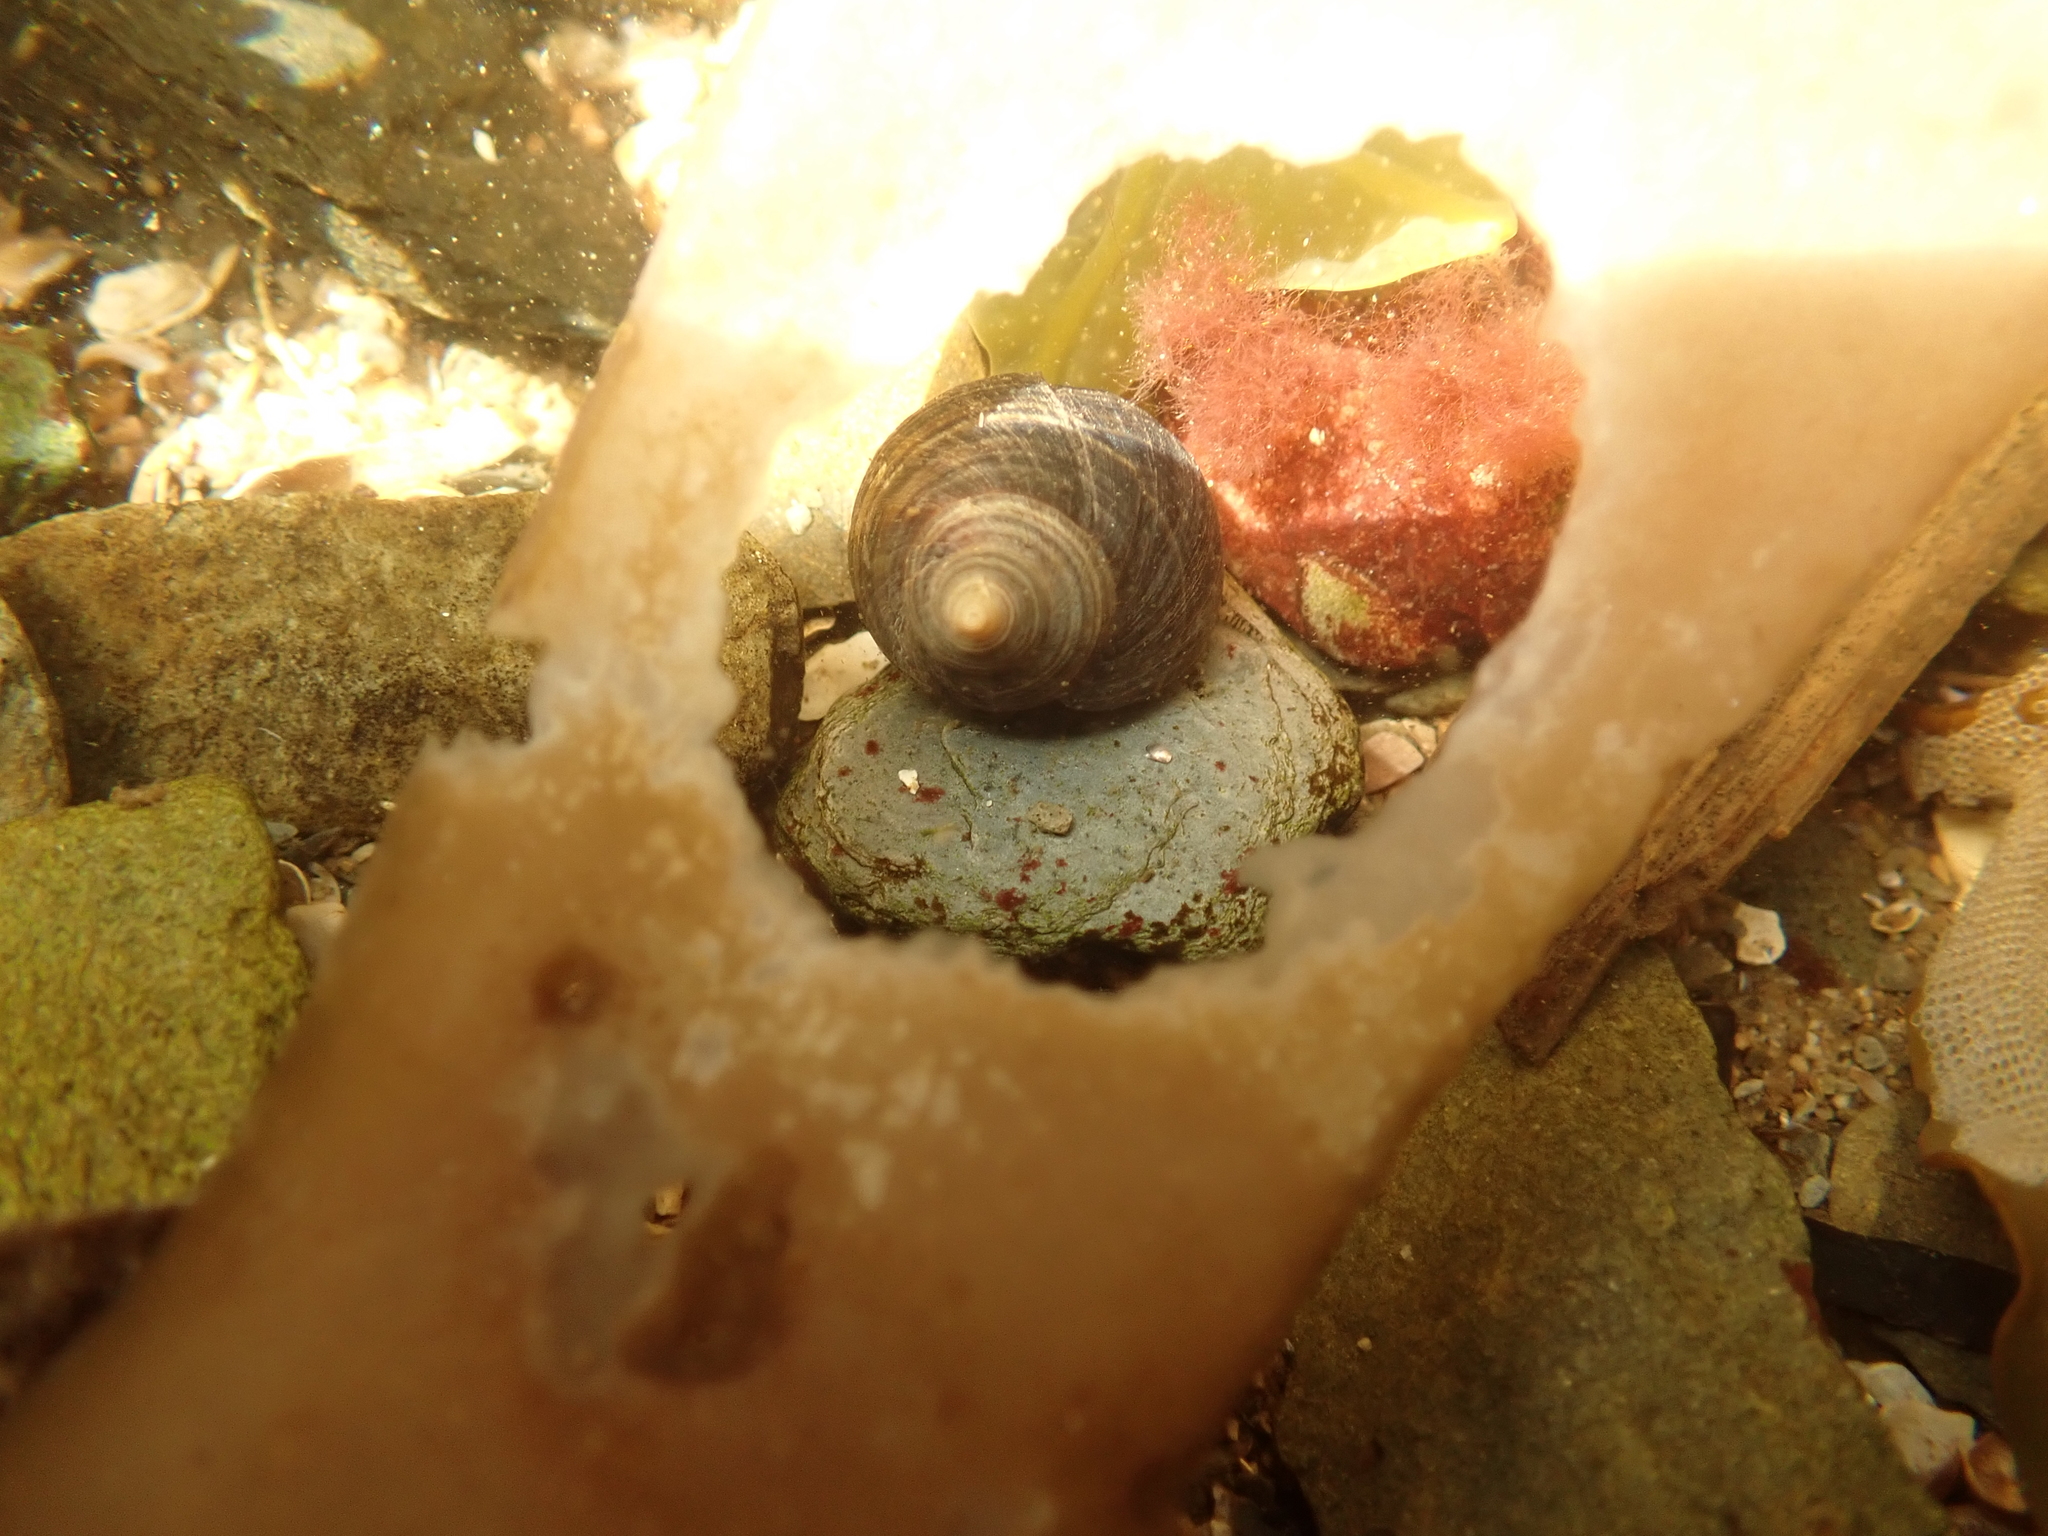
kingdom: Animalia
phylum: Mollusca
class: Gastropoda
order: Littorinimorpha
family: Littorinidae
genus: Littorina
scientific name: Littorina littorea
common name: Common periwinkle
